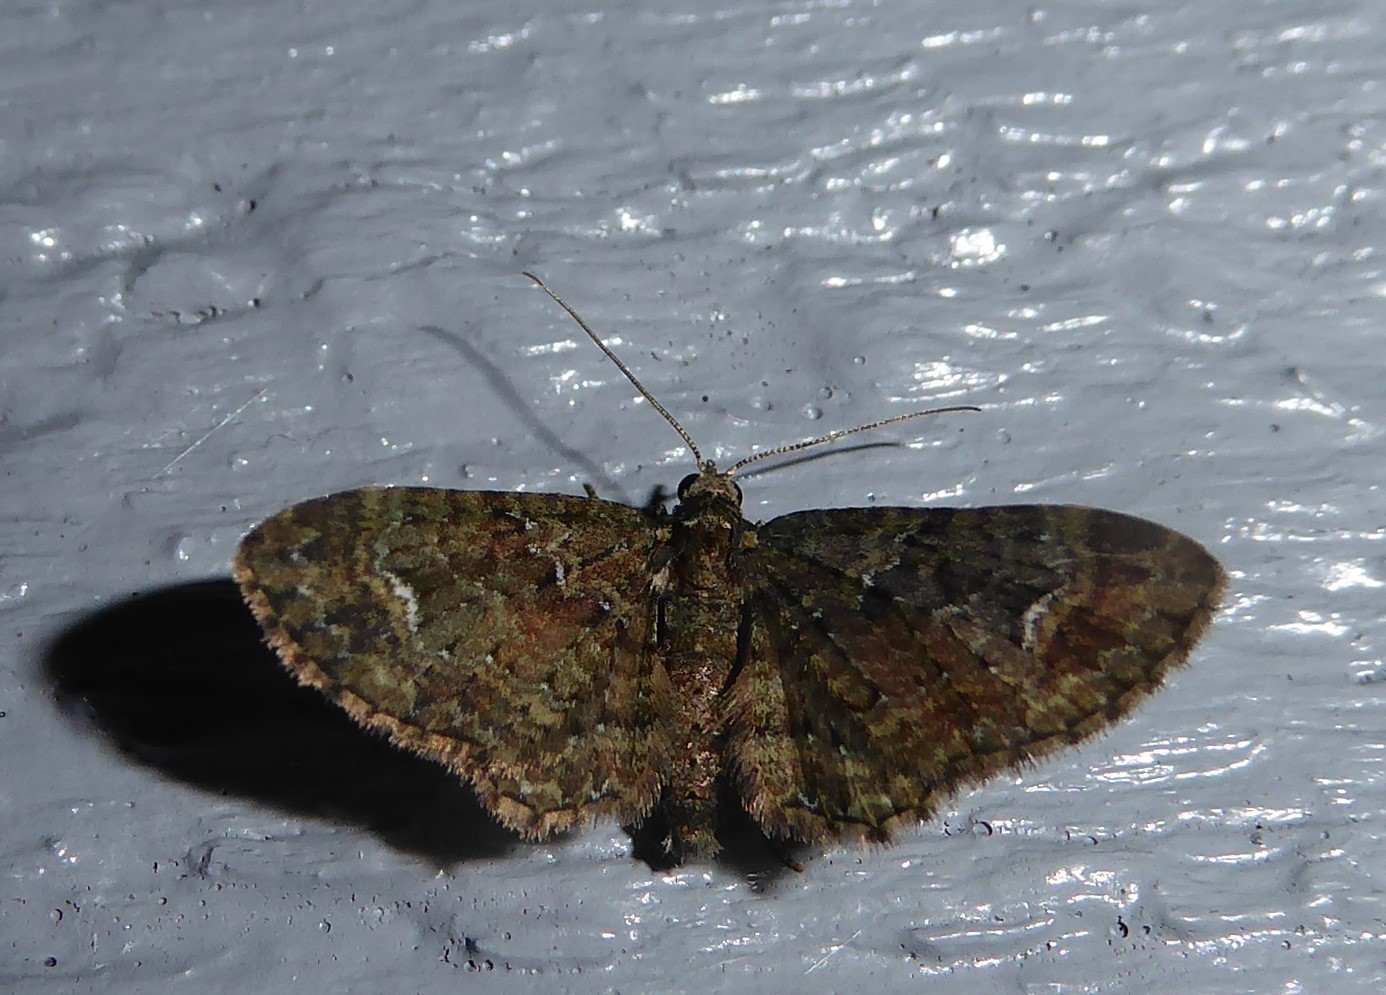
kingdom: Animalia
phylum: Arthropoda
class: Insecta
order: Lepidoptera
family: Geometridae
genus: Pasiphilodes
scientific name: Pasiphilodes testulata
